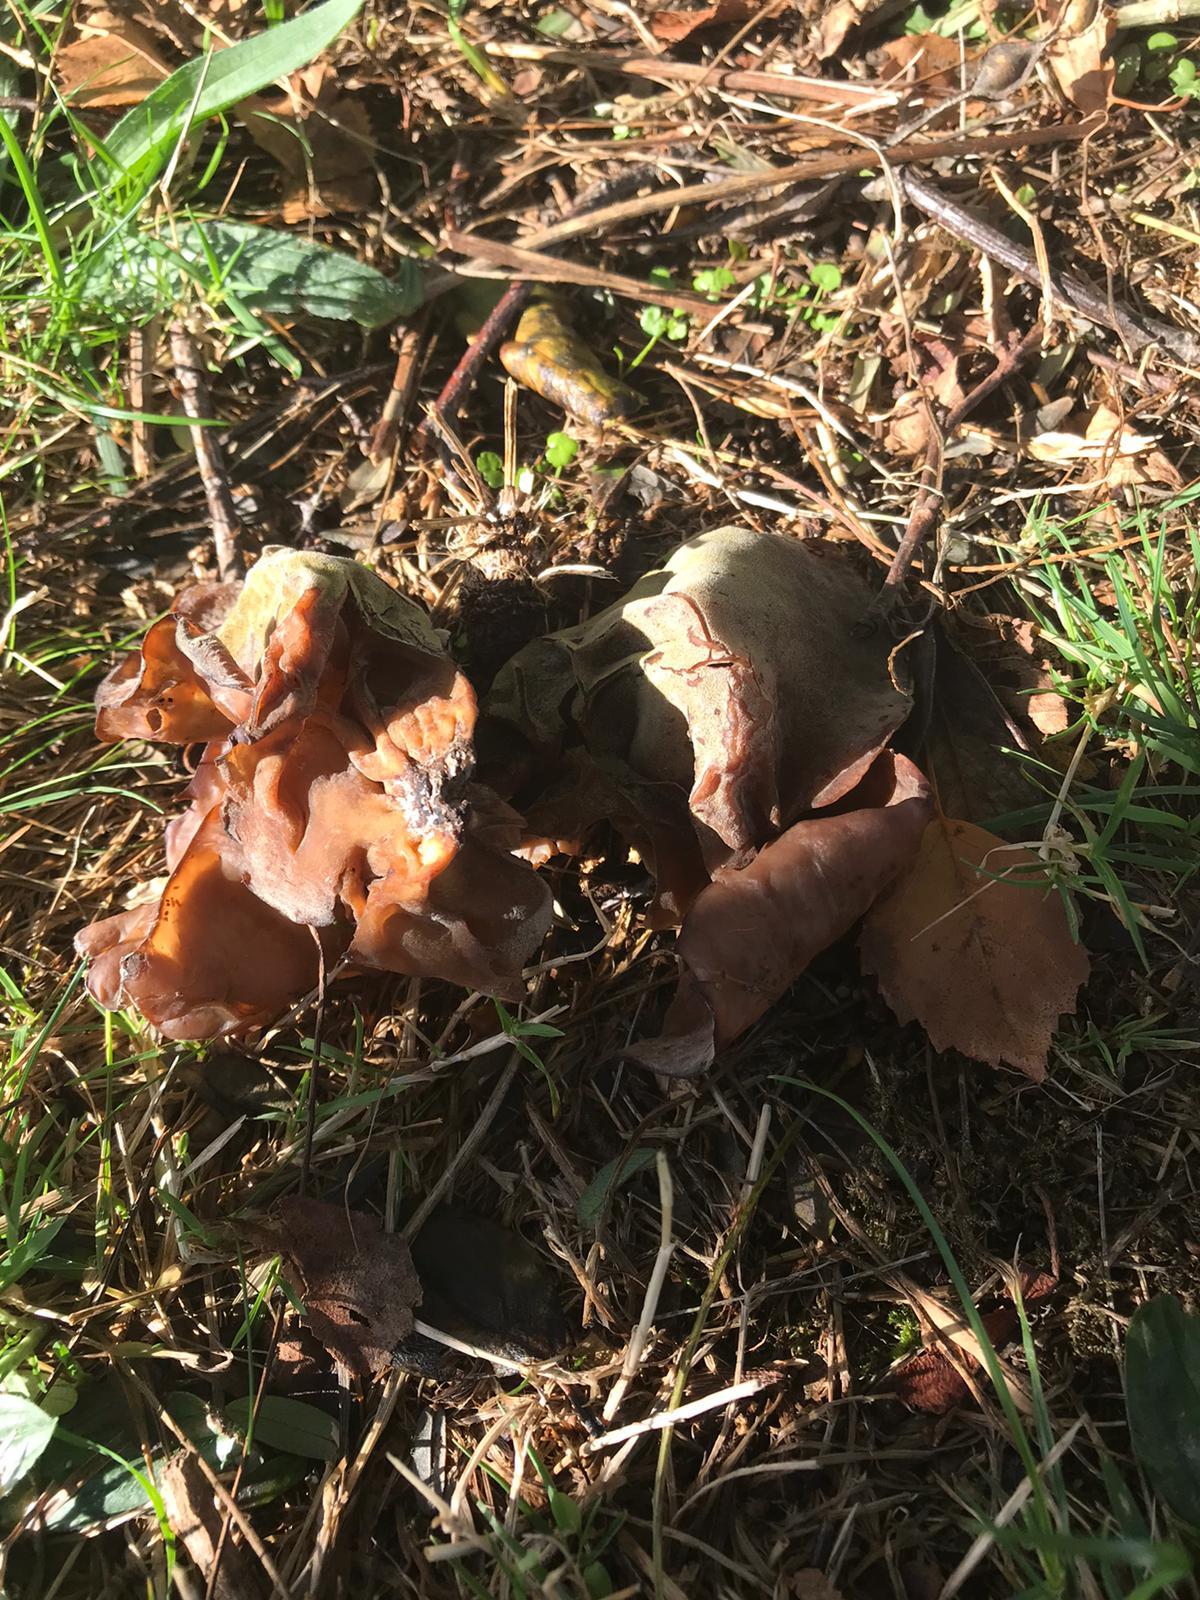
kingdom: Fungi
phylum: Basidiomycota
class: Agaricomycetes
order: Auriculariales
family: Auriculariaceae
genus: Auricularia
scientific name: Auricularia cornea
